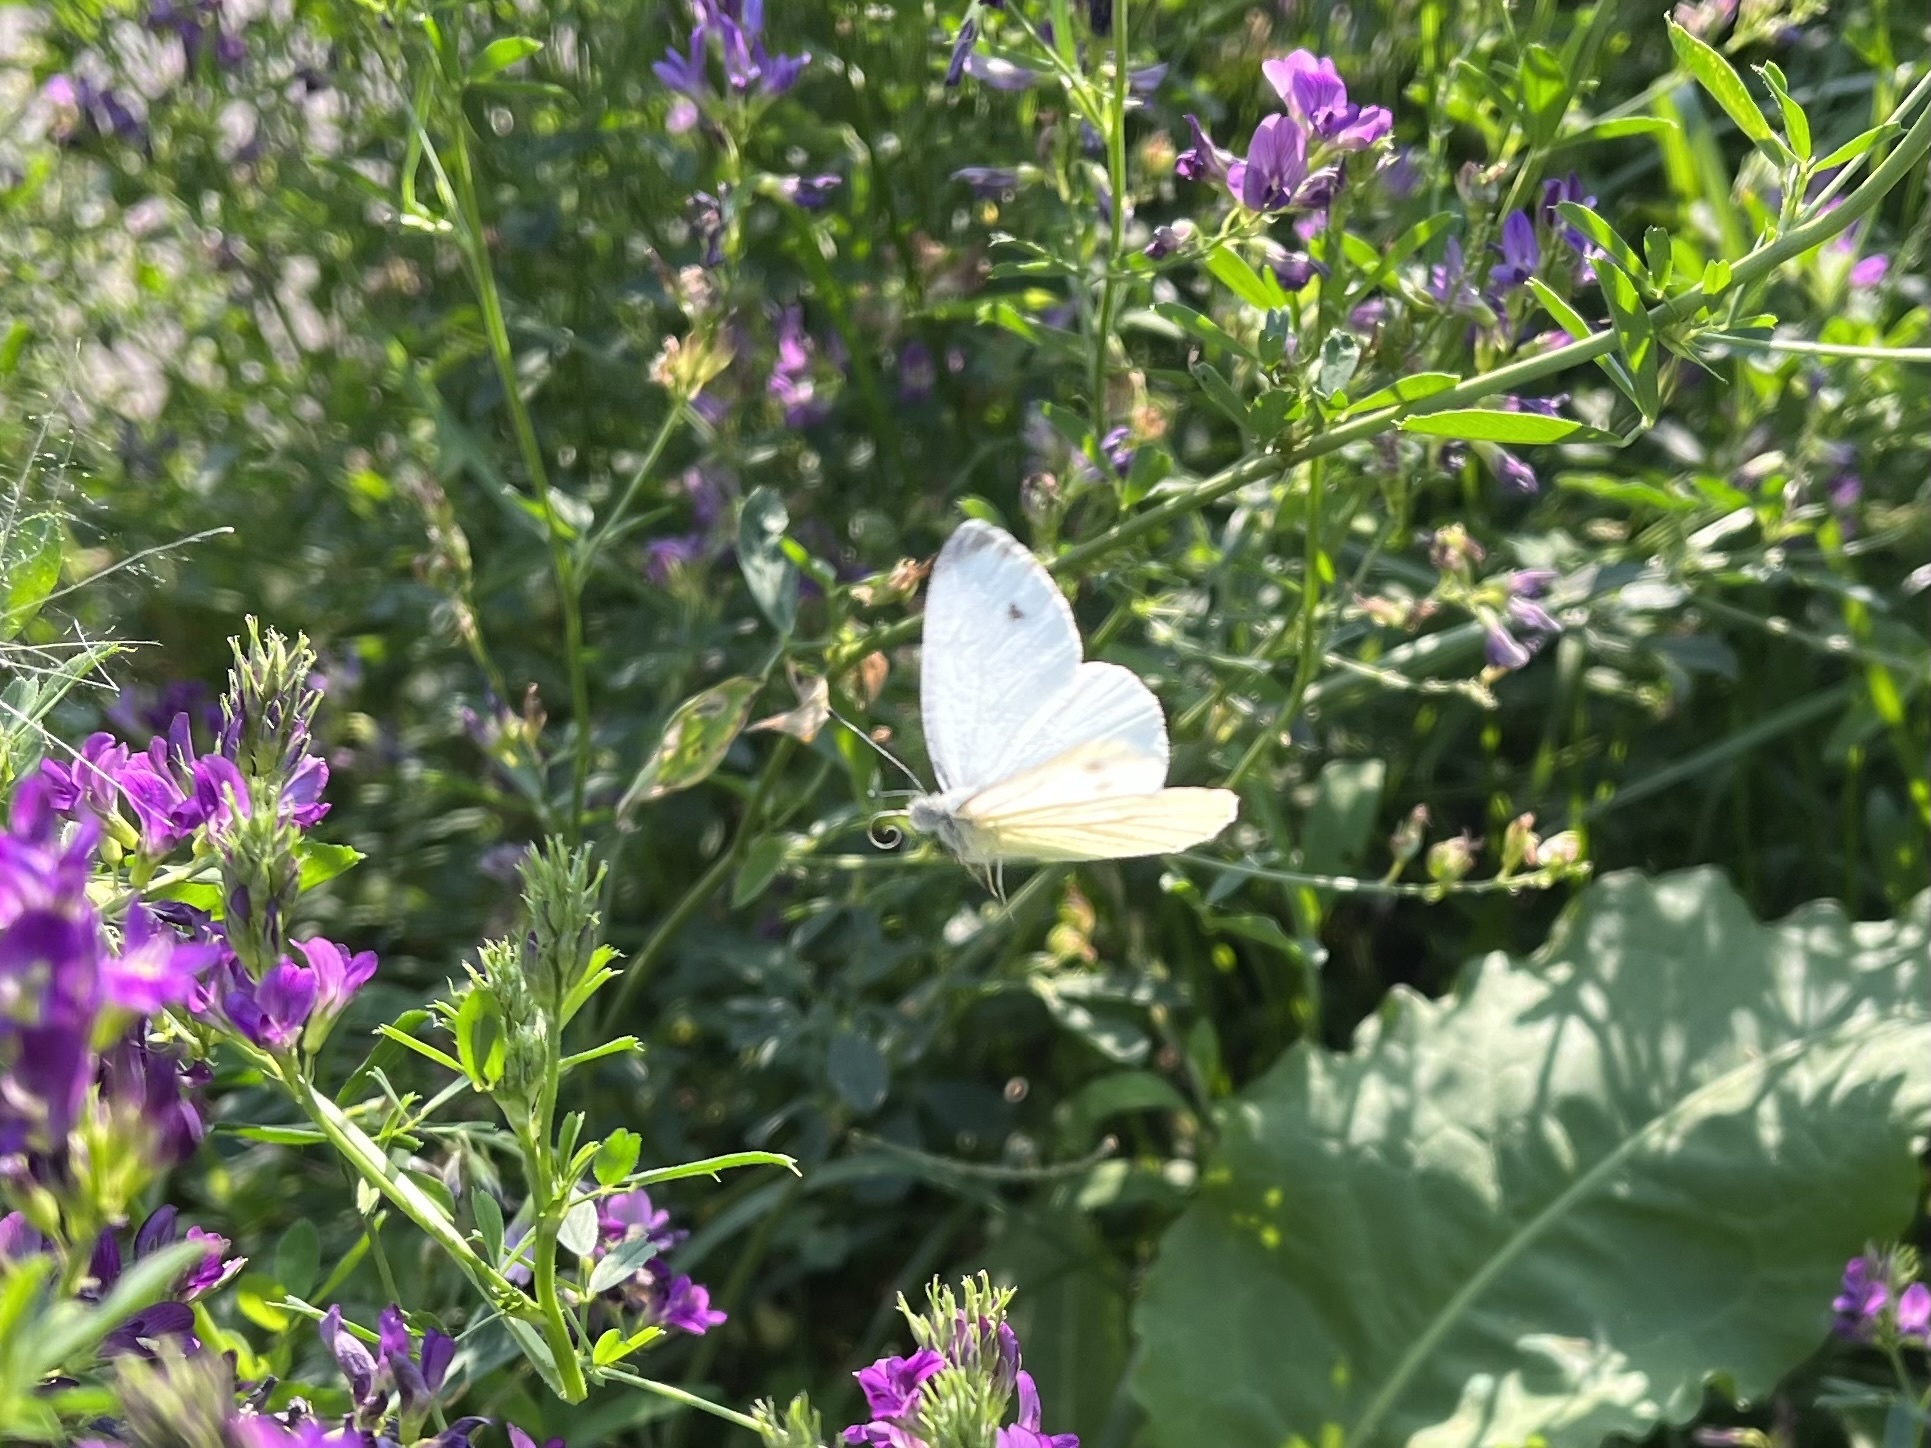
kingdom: Animalia
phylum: Arthropoda
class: Insecta
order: Lepidoptera
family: Pieridae
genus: Pieris
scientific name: Pieris napi
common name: Green-veined white
